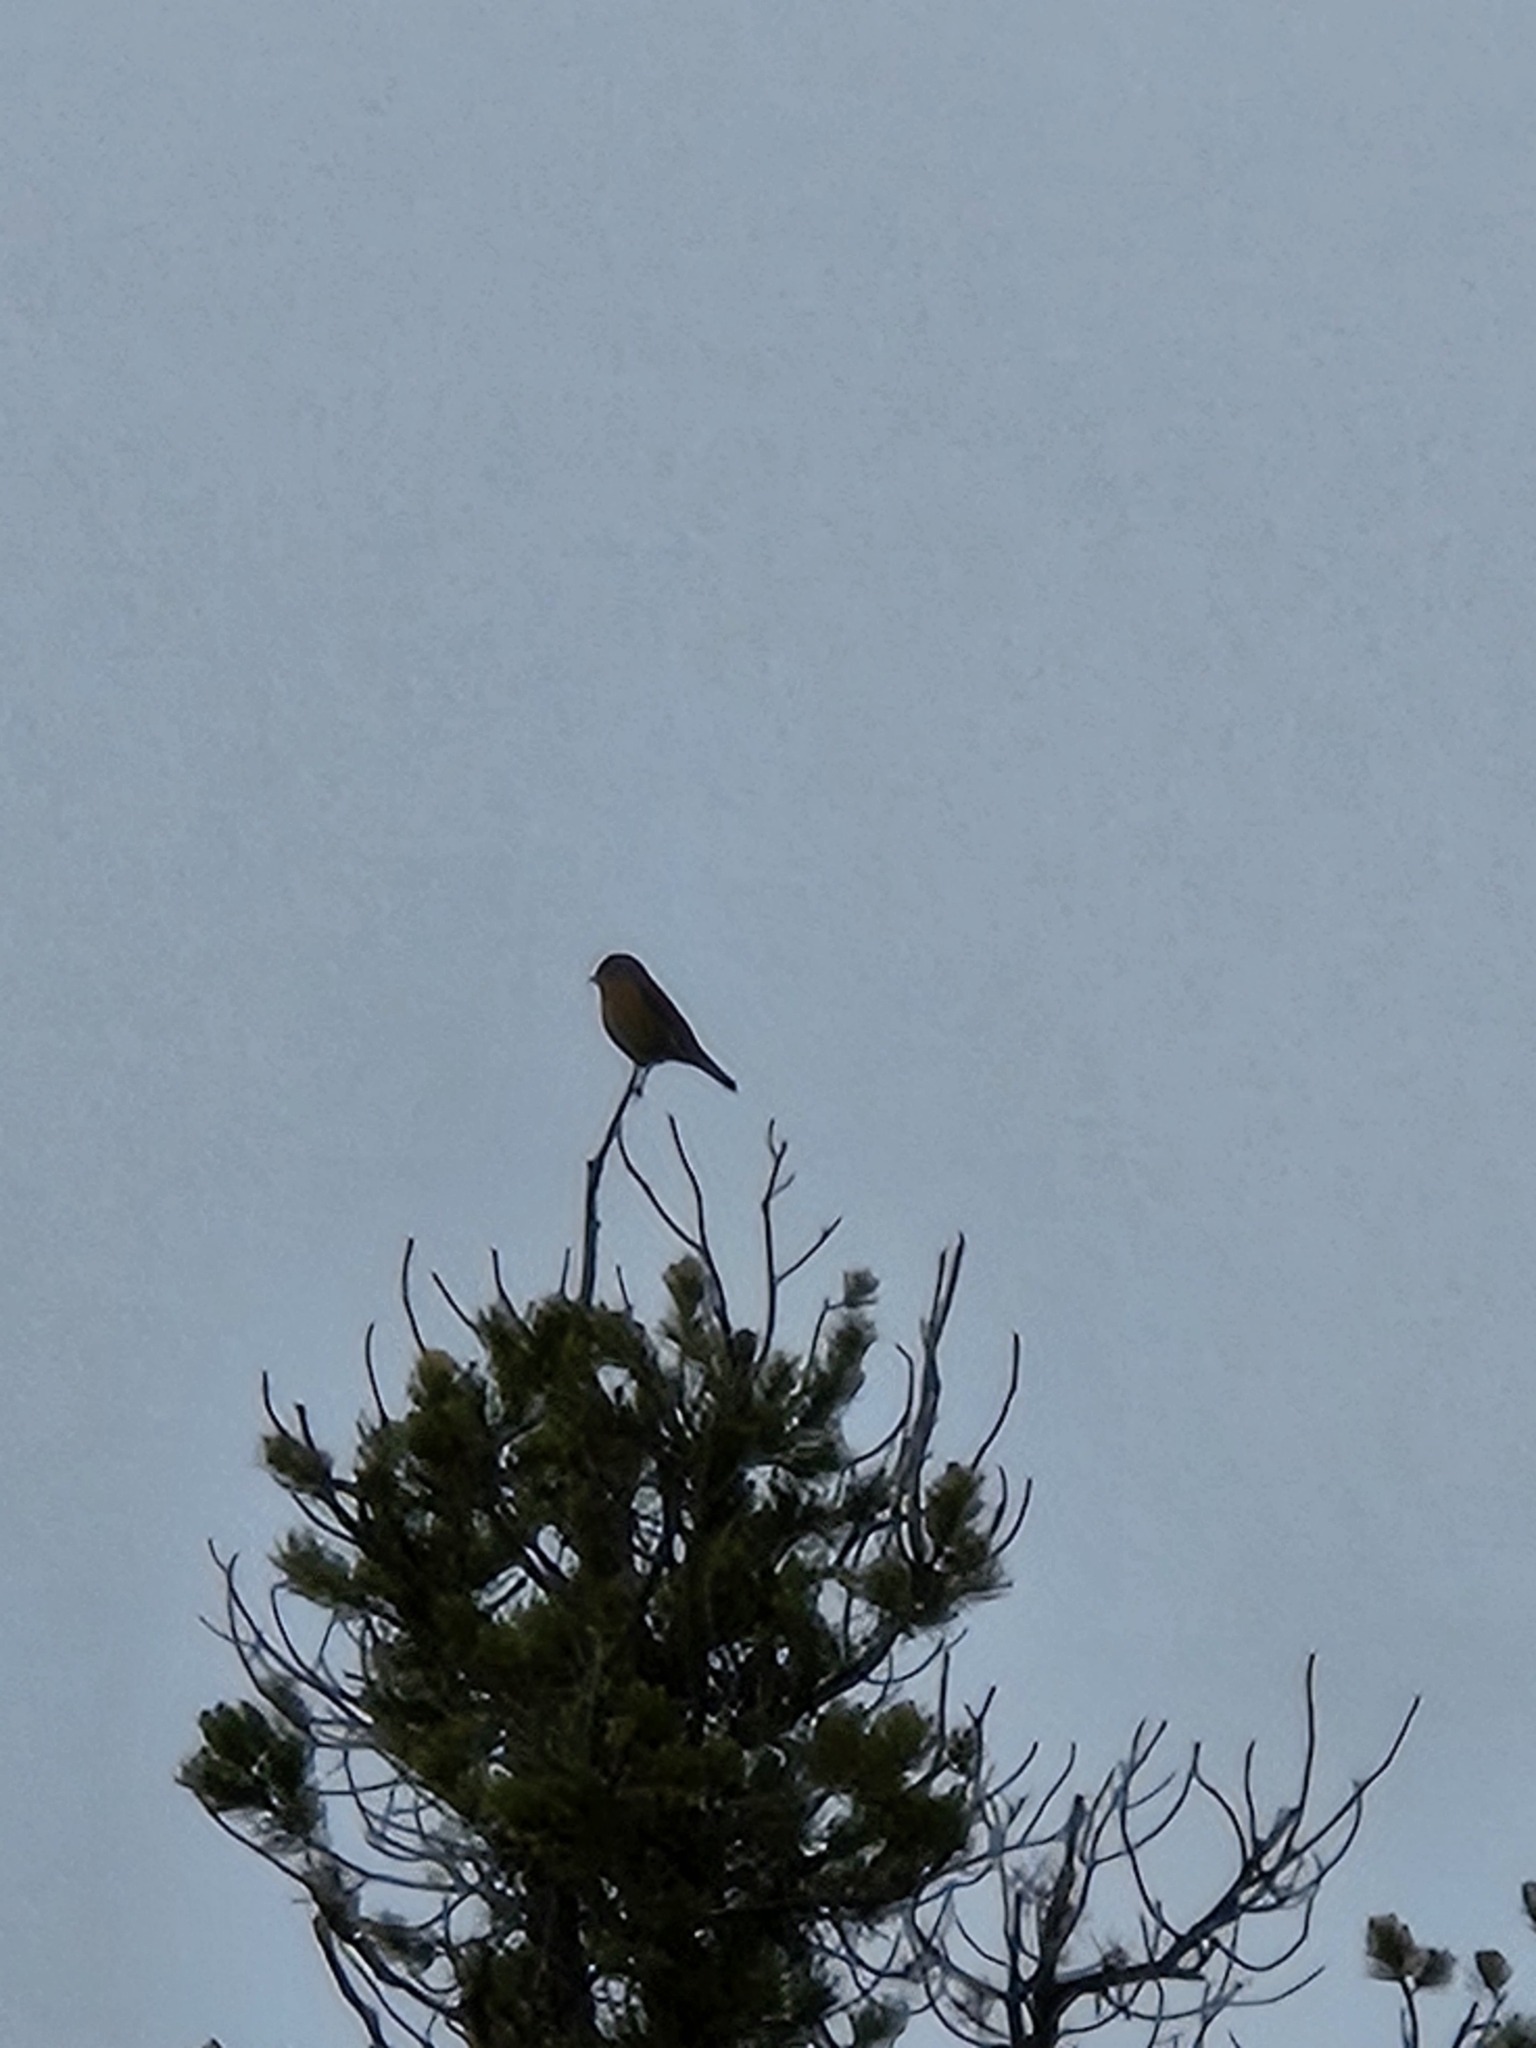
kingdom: Animalia
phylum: Chordata
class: Aves
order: Passeriformes
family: Turdidae
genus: Sialia
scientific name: Sialia mexicana
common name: Western bluebird
